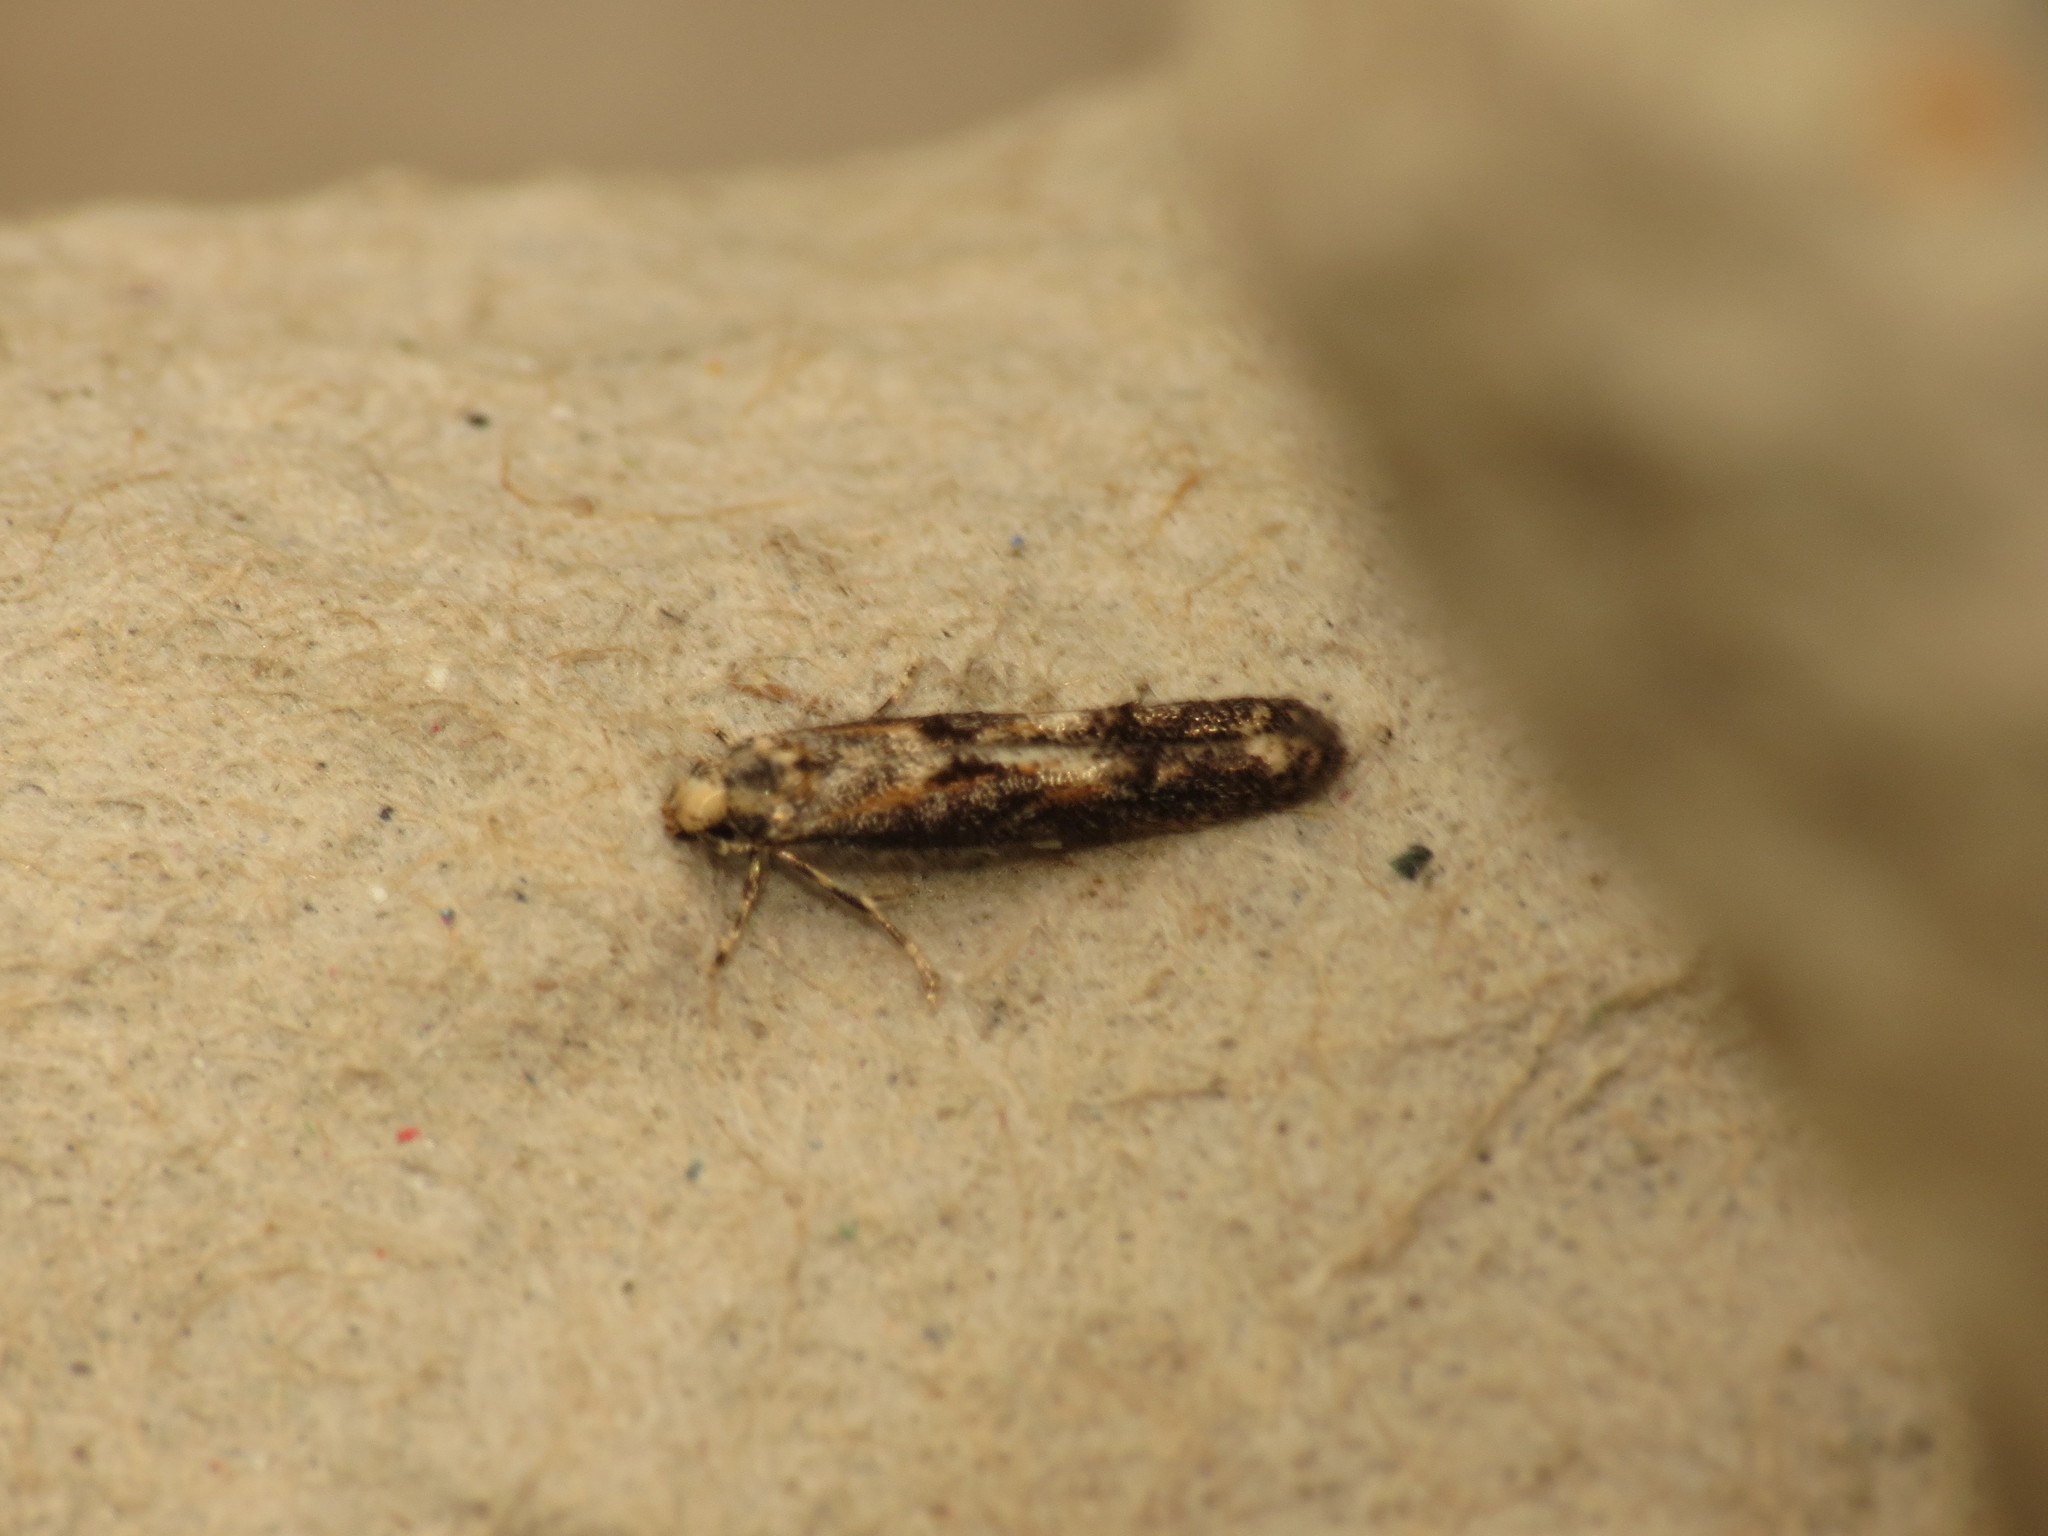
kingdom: Animalia
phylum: Arthropoda
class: Insecta
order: Lepidoptera
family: Elachistidae
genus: Blastodacna
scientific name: Blastodacna atra
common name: Apple pith moth
